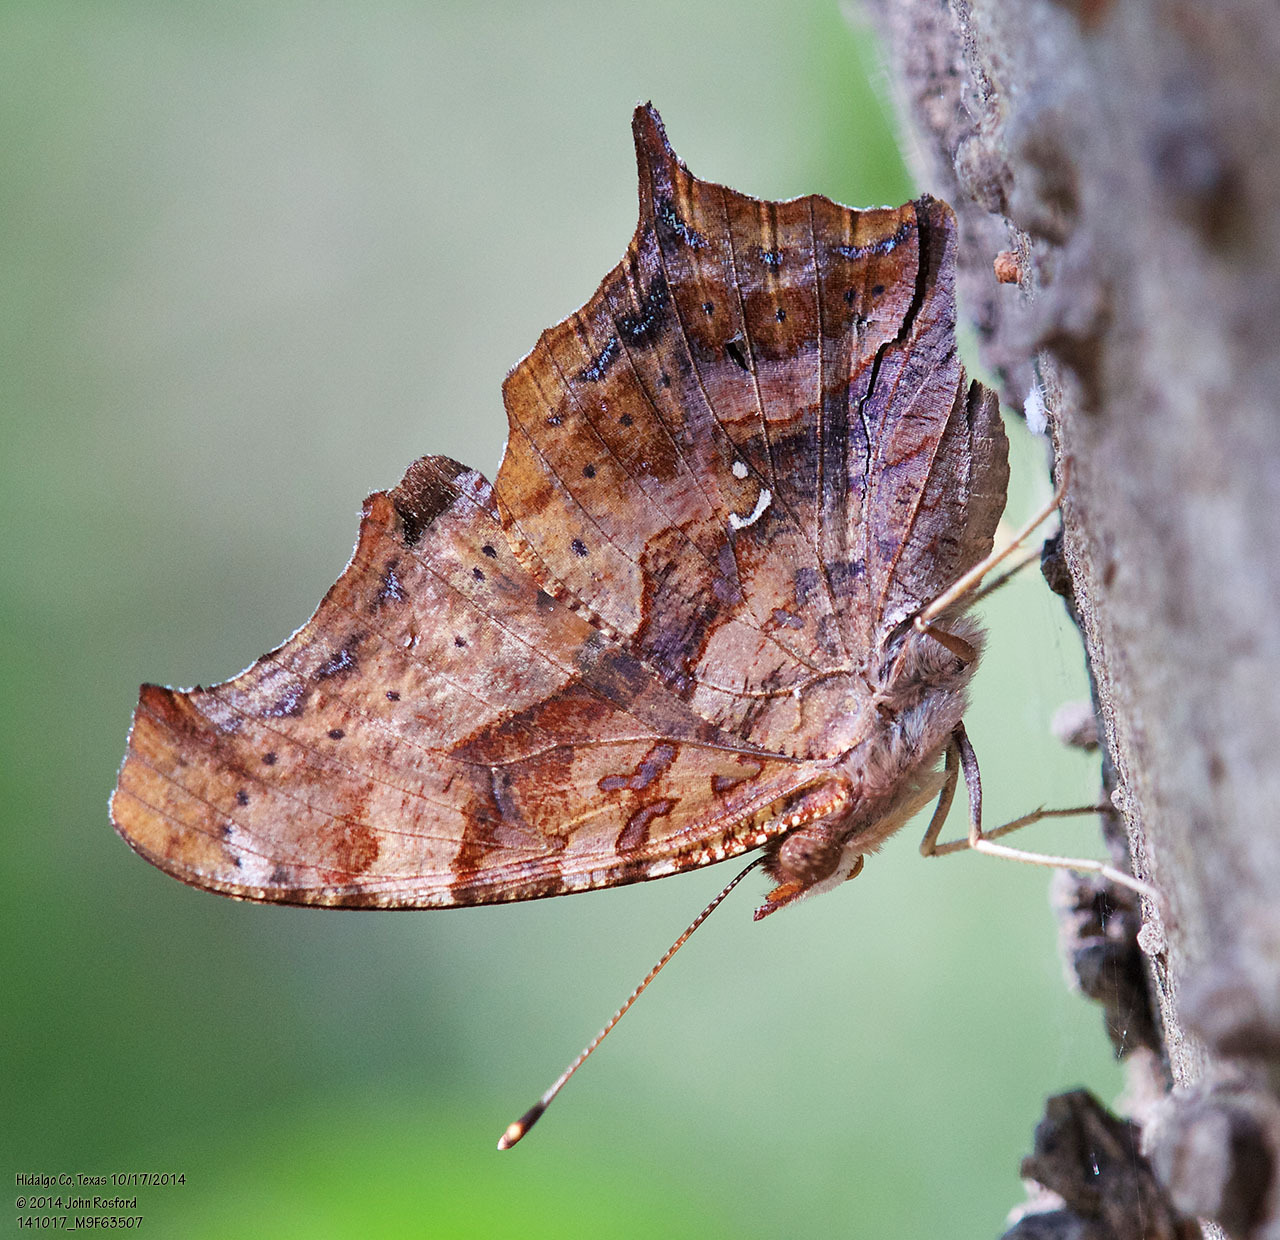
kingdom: Animalia
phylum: Arthropoda
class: Insecta
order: Lepidoptera
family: Nymphalidae
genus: Polygonia
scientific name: Polygonia interrogationis
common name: Question mark
